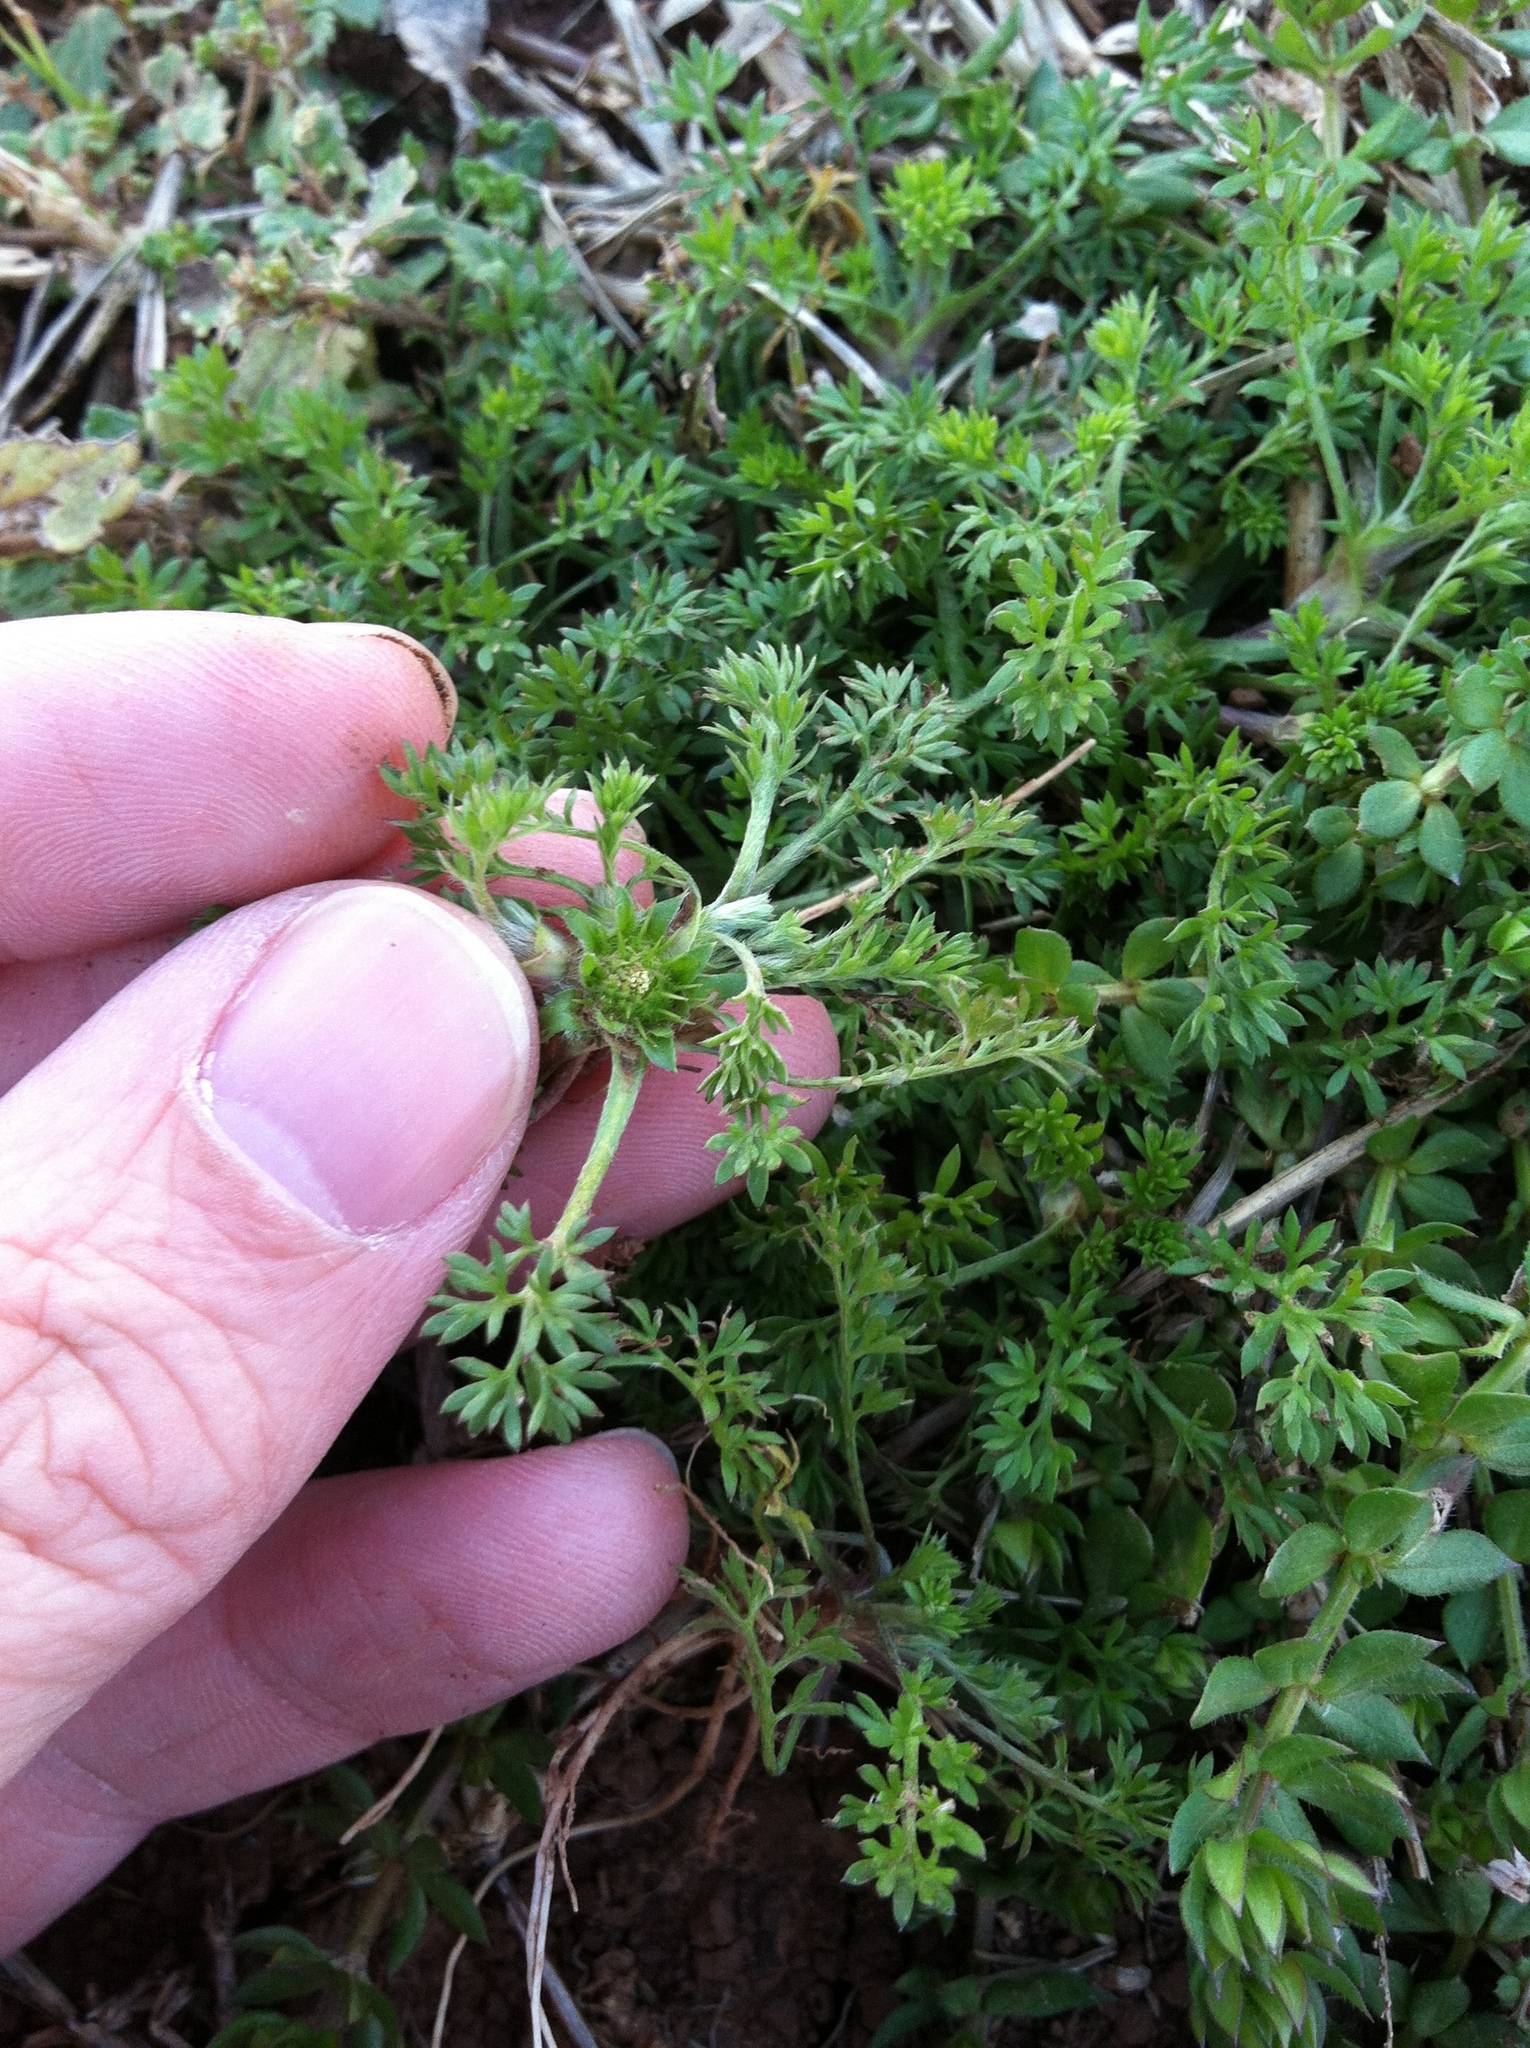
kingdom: Plantae
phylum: Tracheophyta
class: Magnoliopsida
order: Asterales
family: Asteraceae
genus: Soliva
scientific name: Soliva sessilis
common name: Field burrweed
